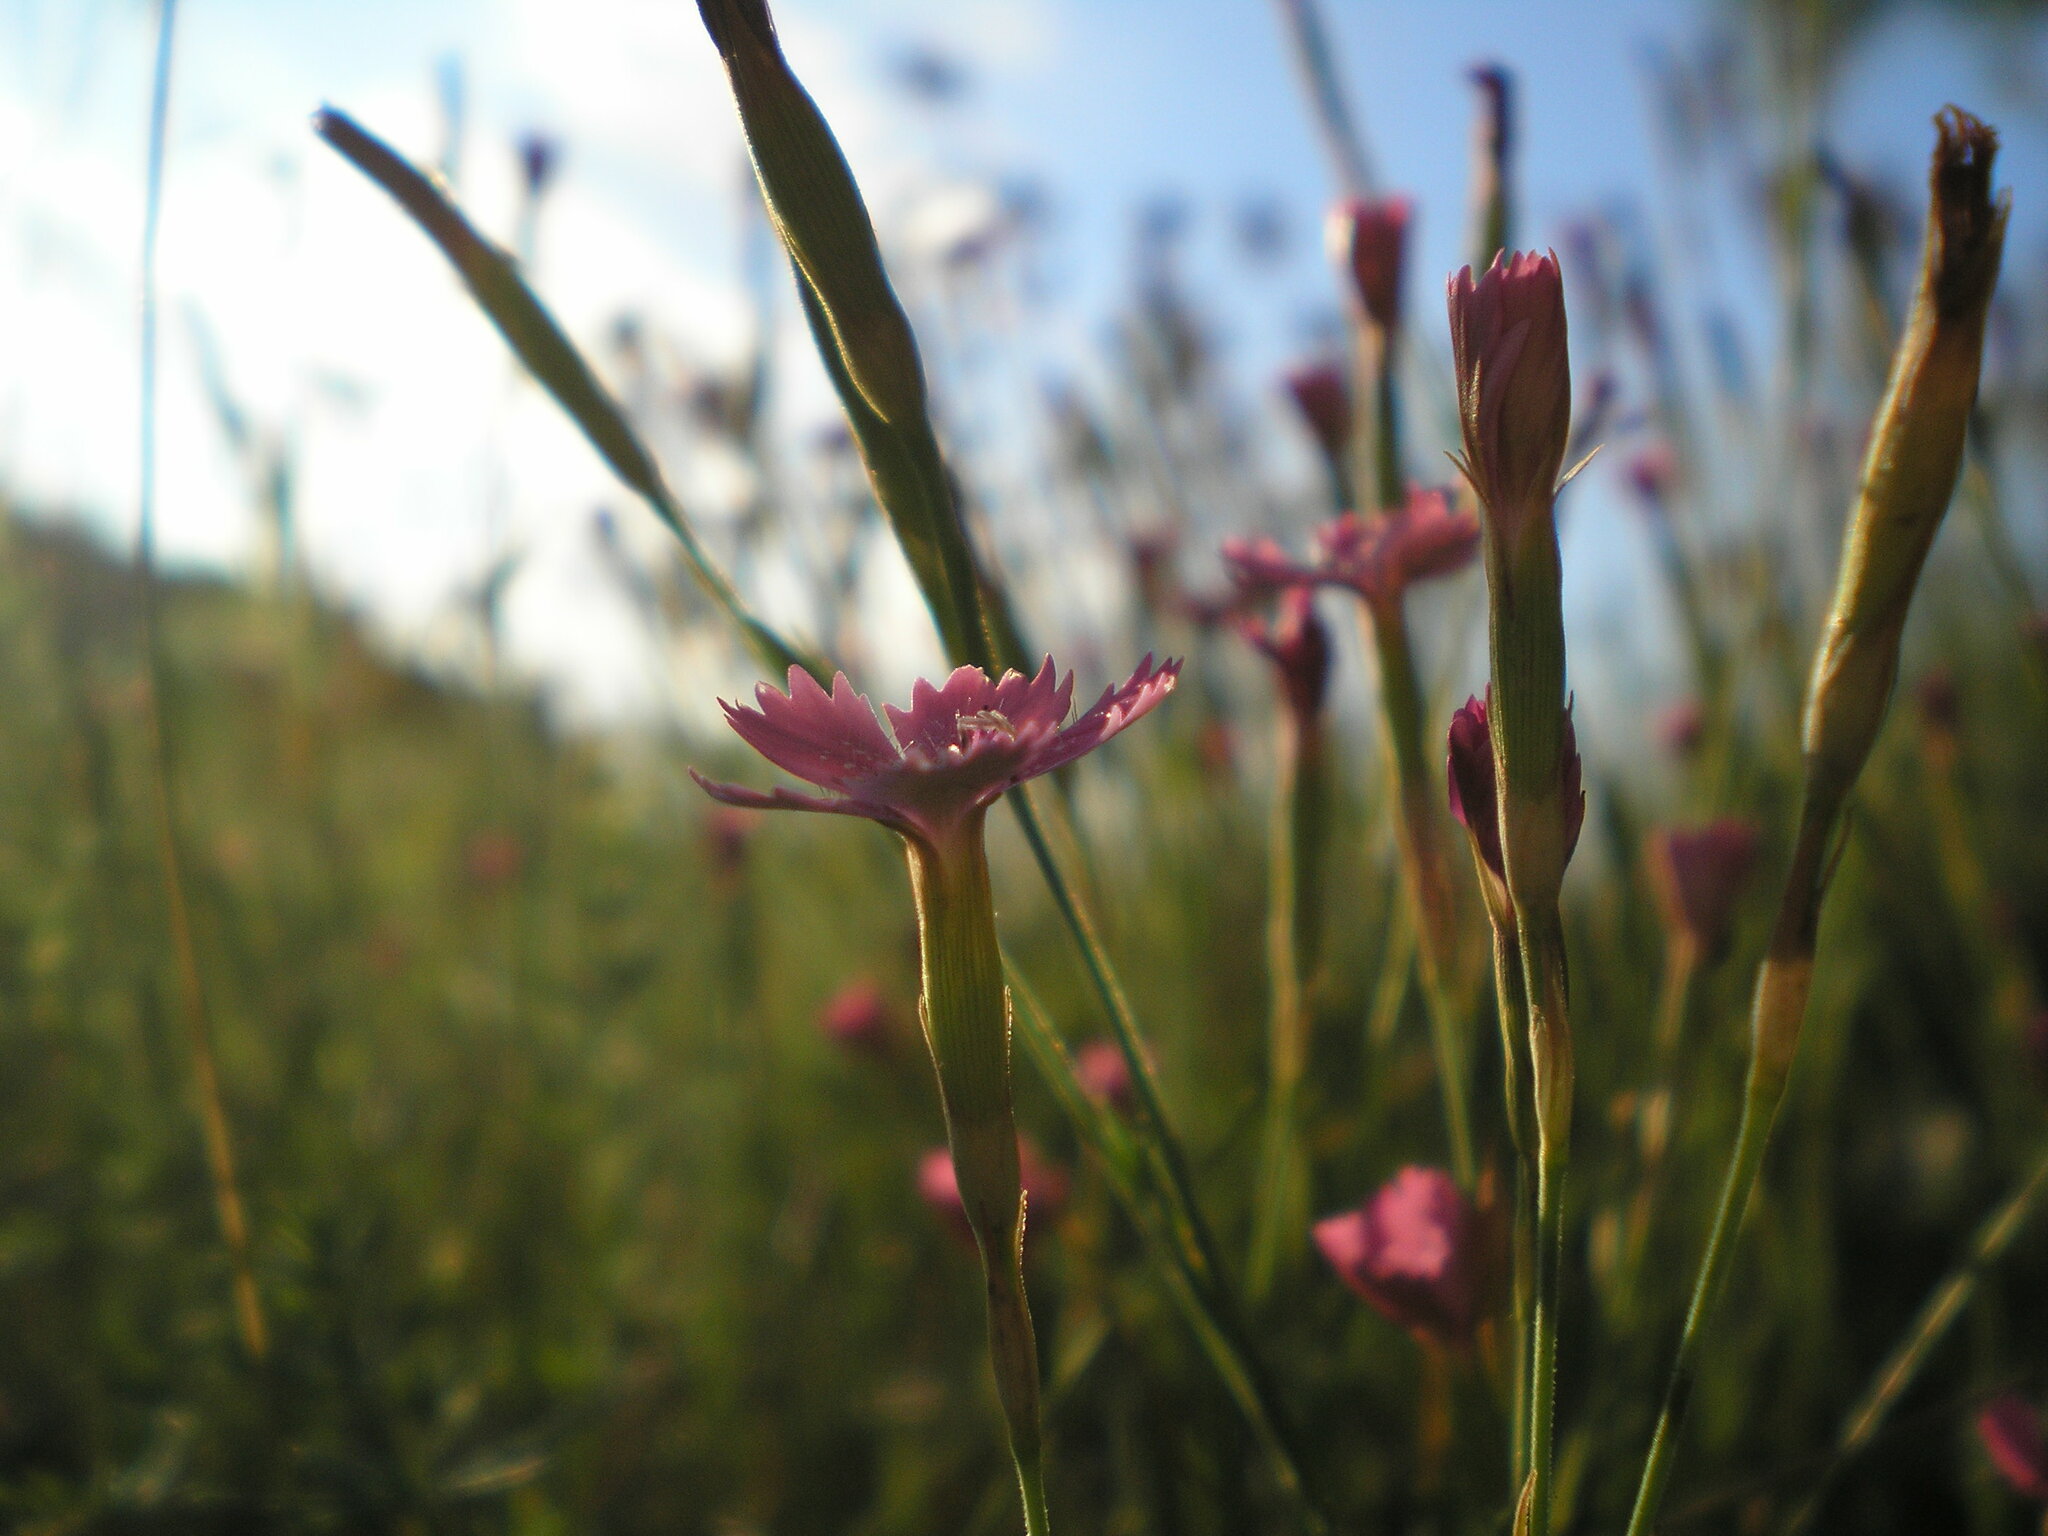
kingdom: Plantae
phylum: Tracheophyta
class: Magnoliopsida
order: Caryophyllales
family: Caryophyllaceae
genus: Dianthus
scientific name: Dianthus deltoides
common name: Maiden pink
